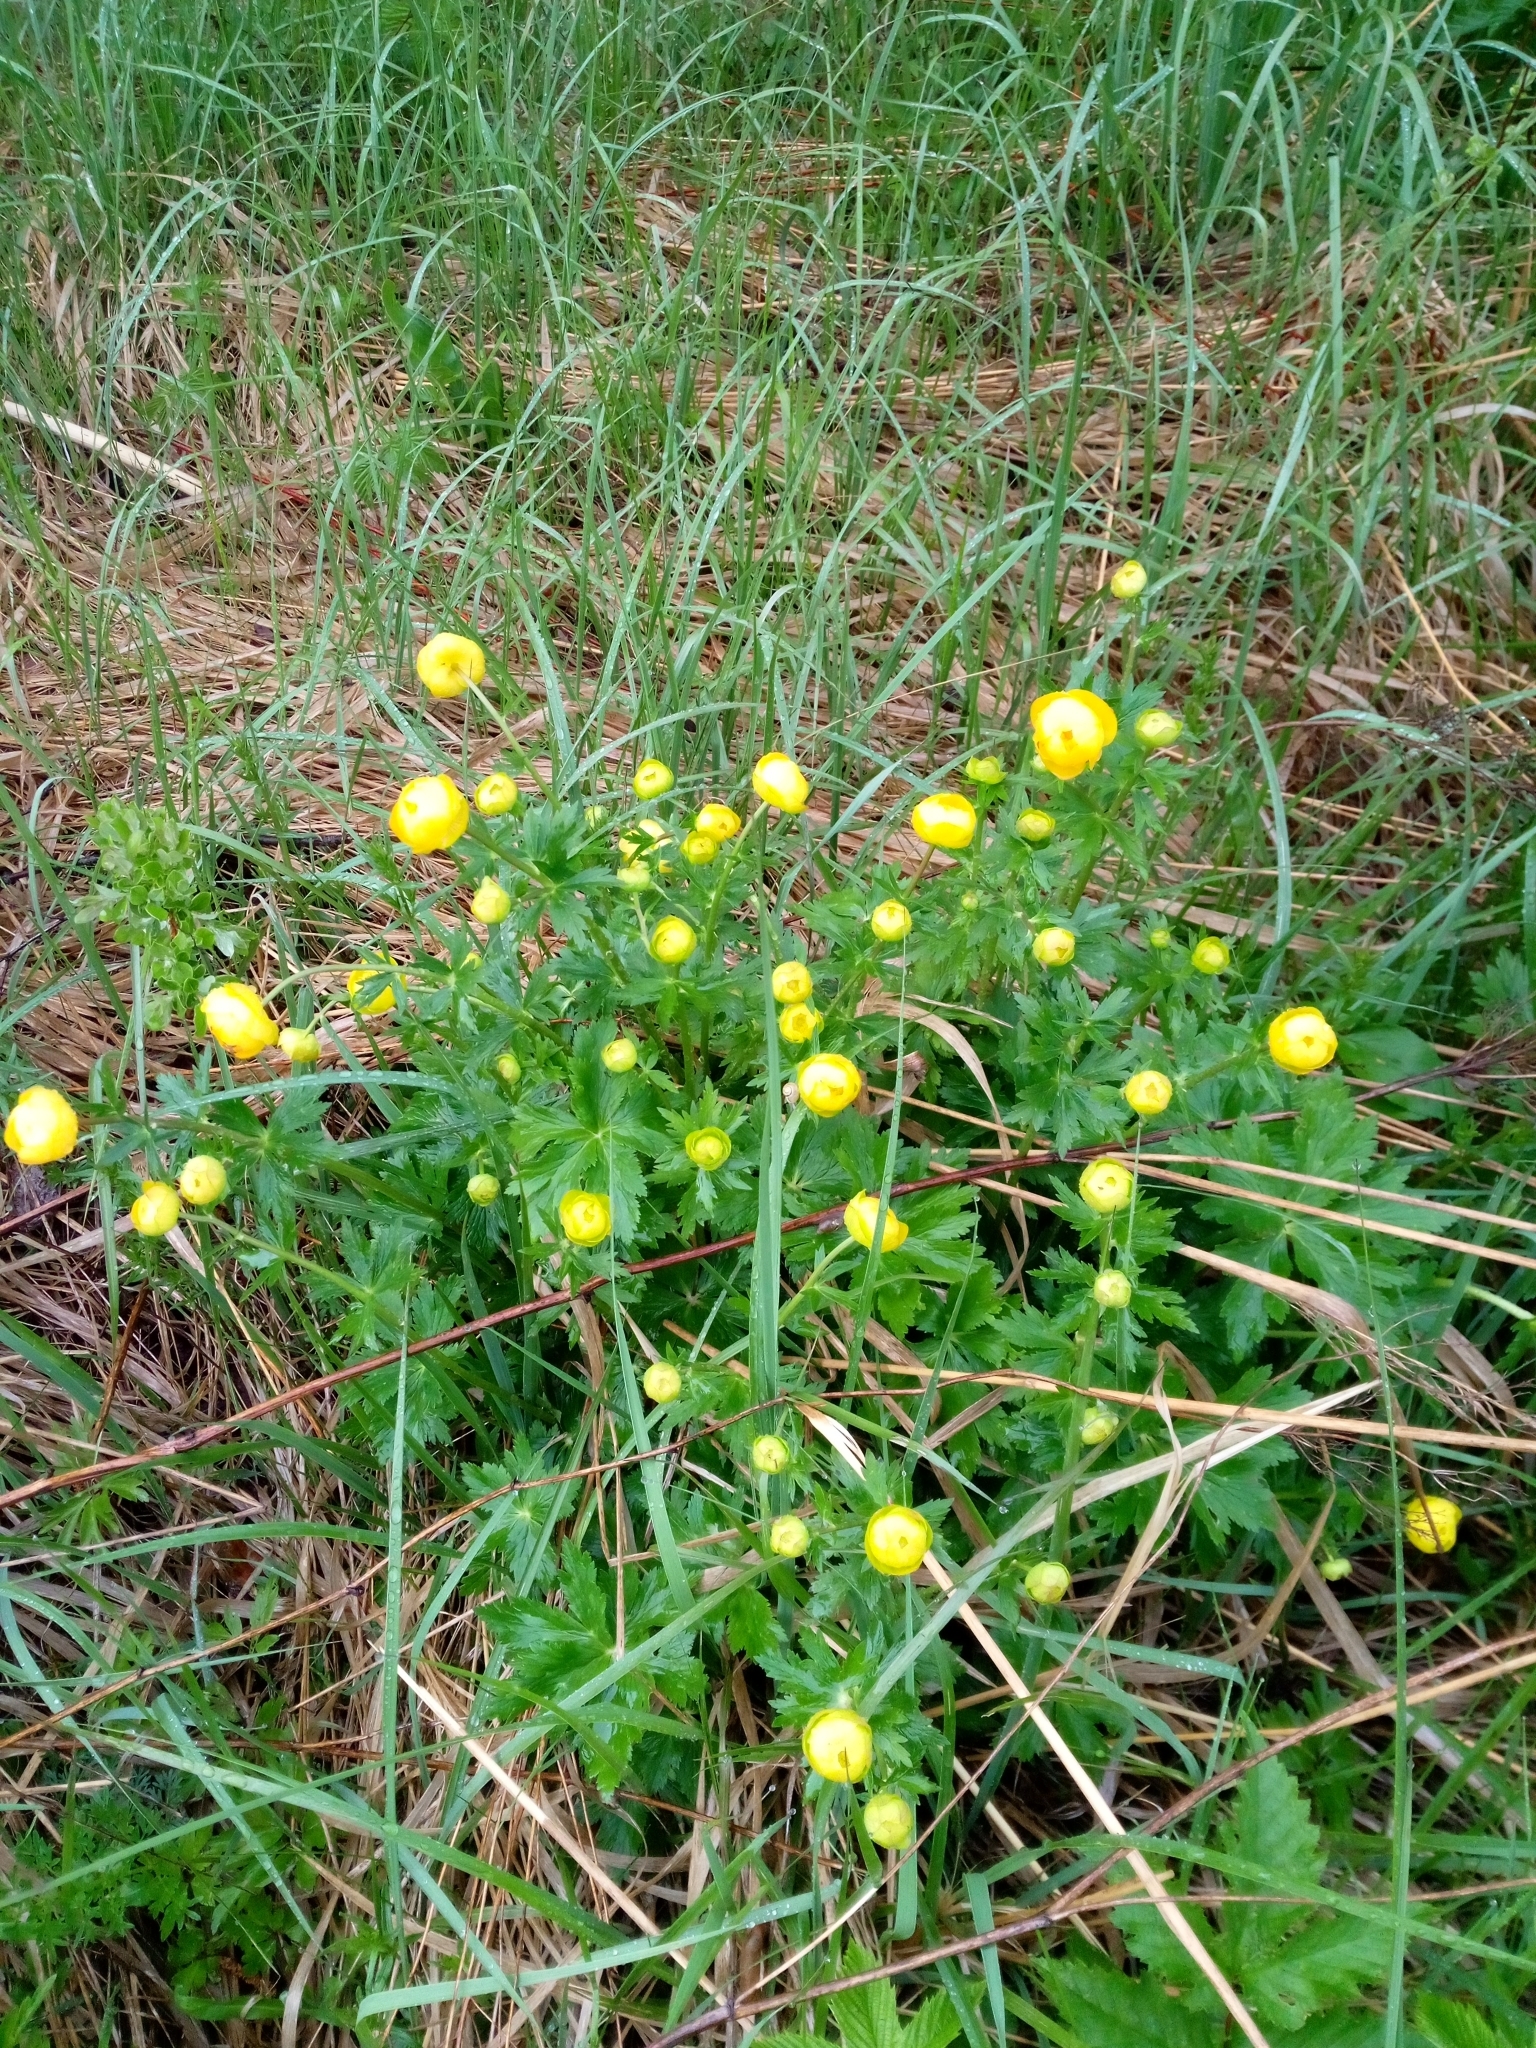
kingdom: Plantae
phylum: Tracheophyta
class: Magnoliopsida
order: Ranunculales
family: Ranunculaceae
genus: Trollius
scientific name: Trollius europaeus
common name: European globeflower
